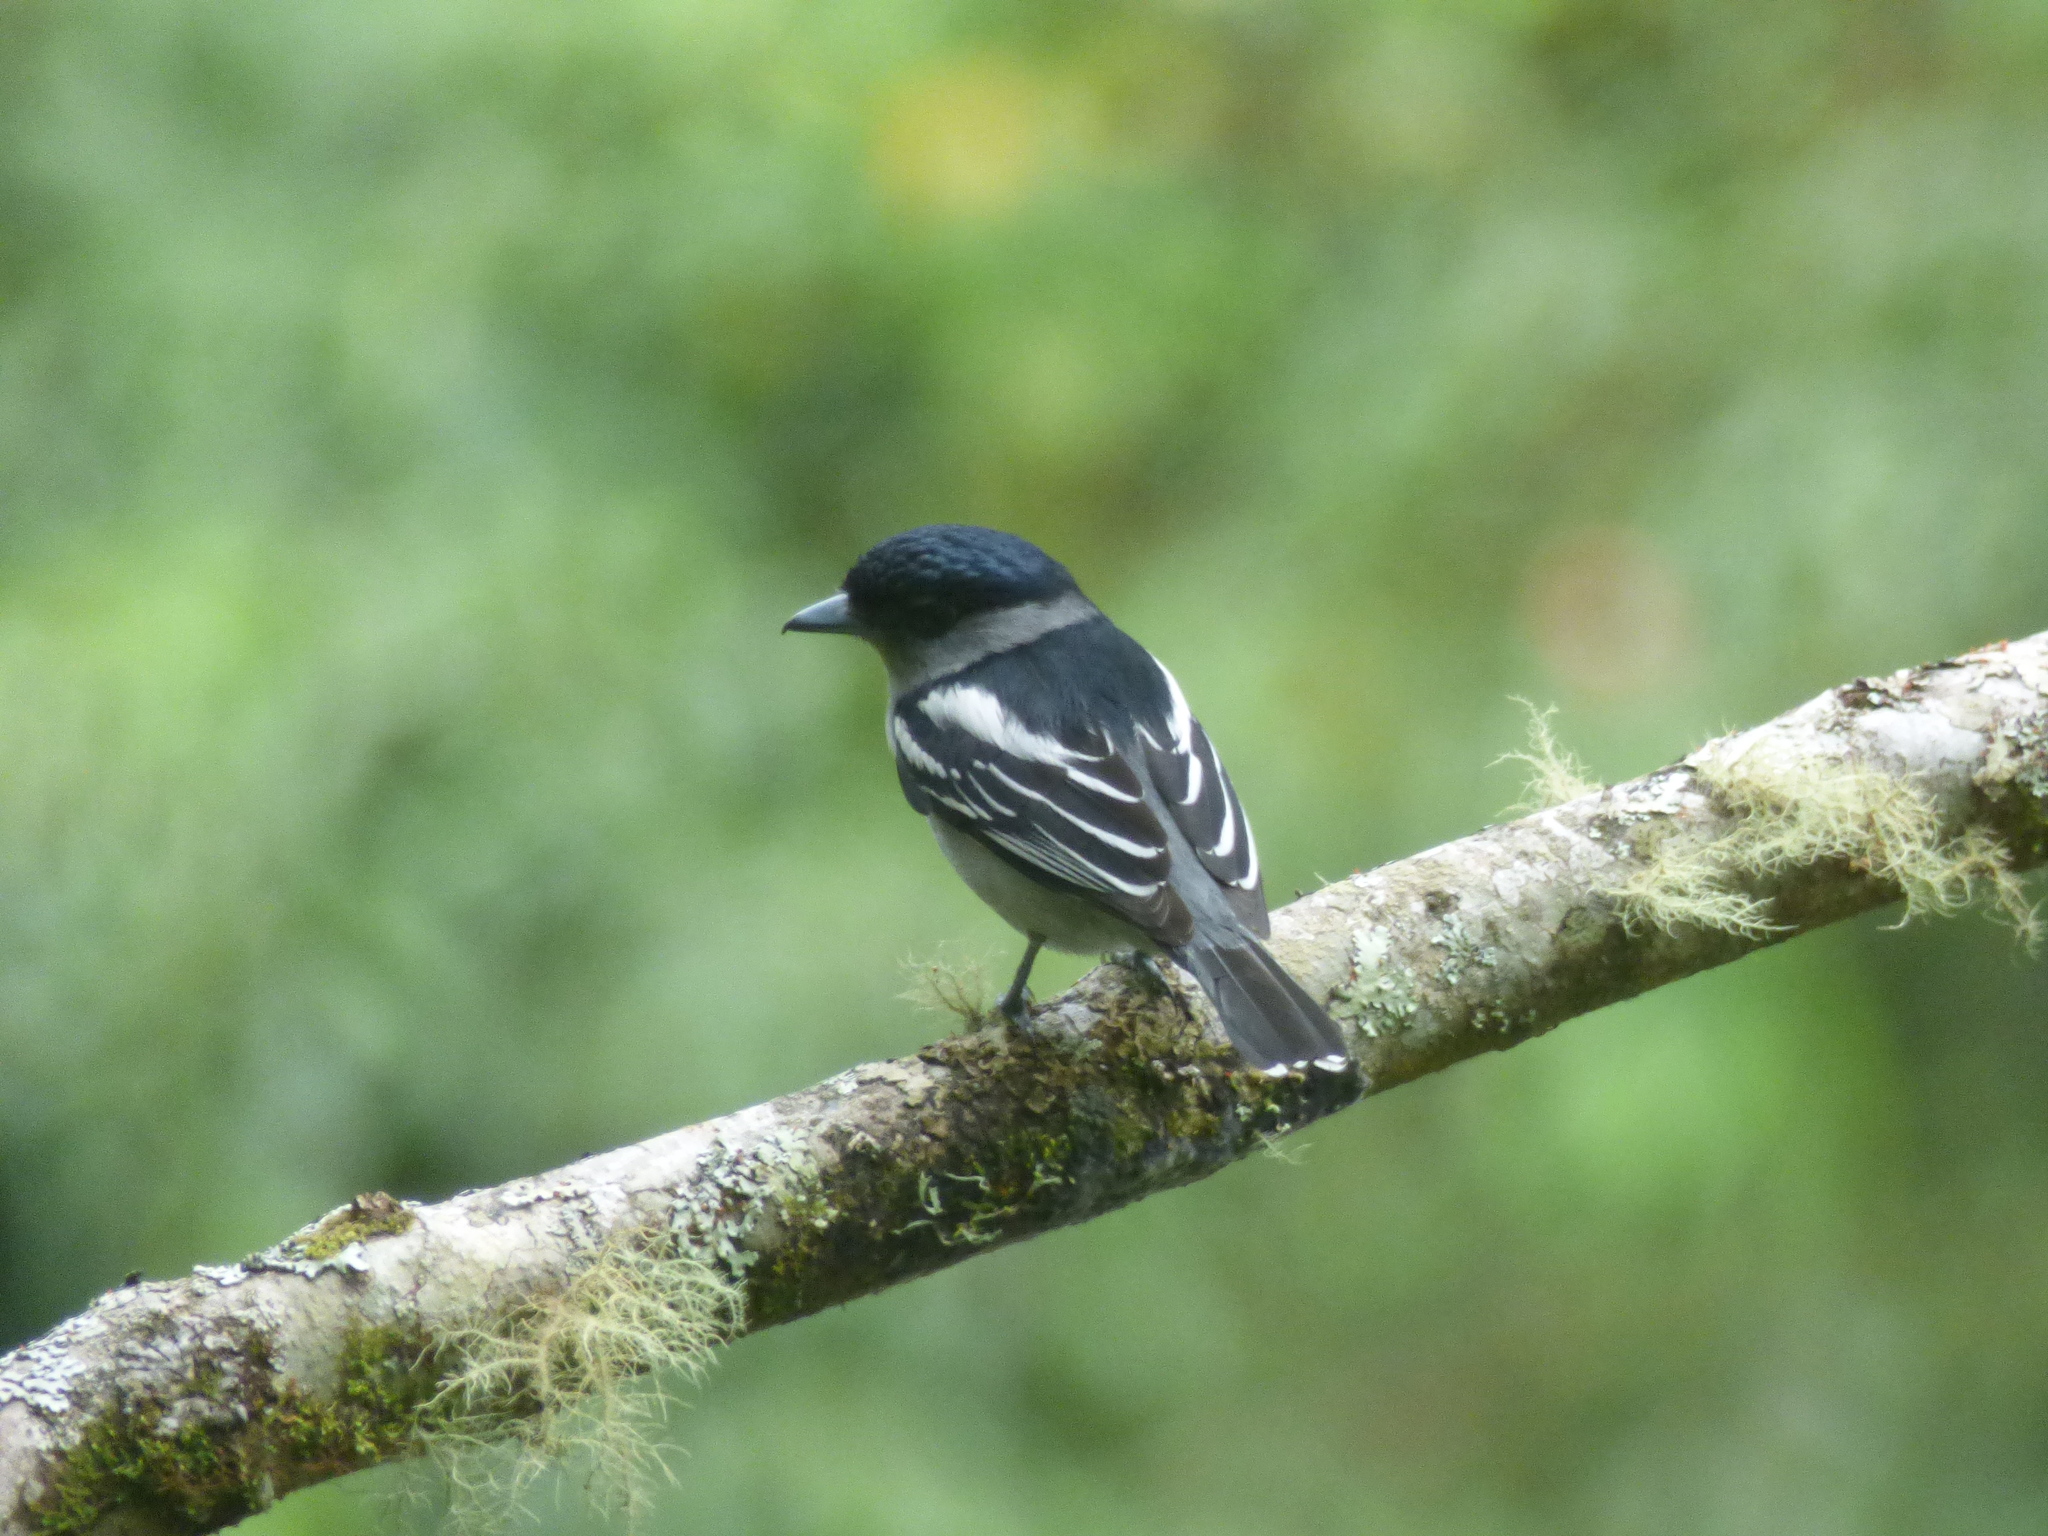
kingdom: Animalia
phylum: Chordata
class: Aves
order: Passeriformes
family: Cotingidae
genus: Pachyramphus
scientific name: Pachyramphus polychopterus
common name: White-winged becard
